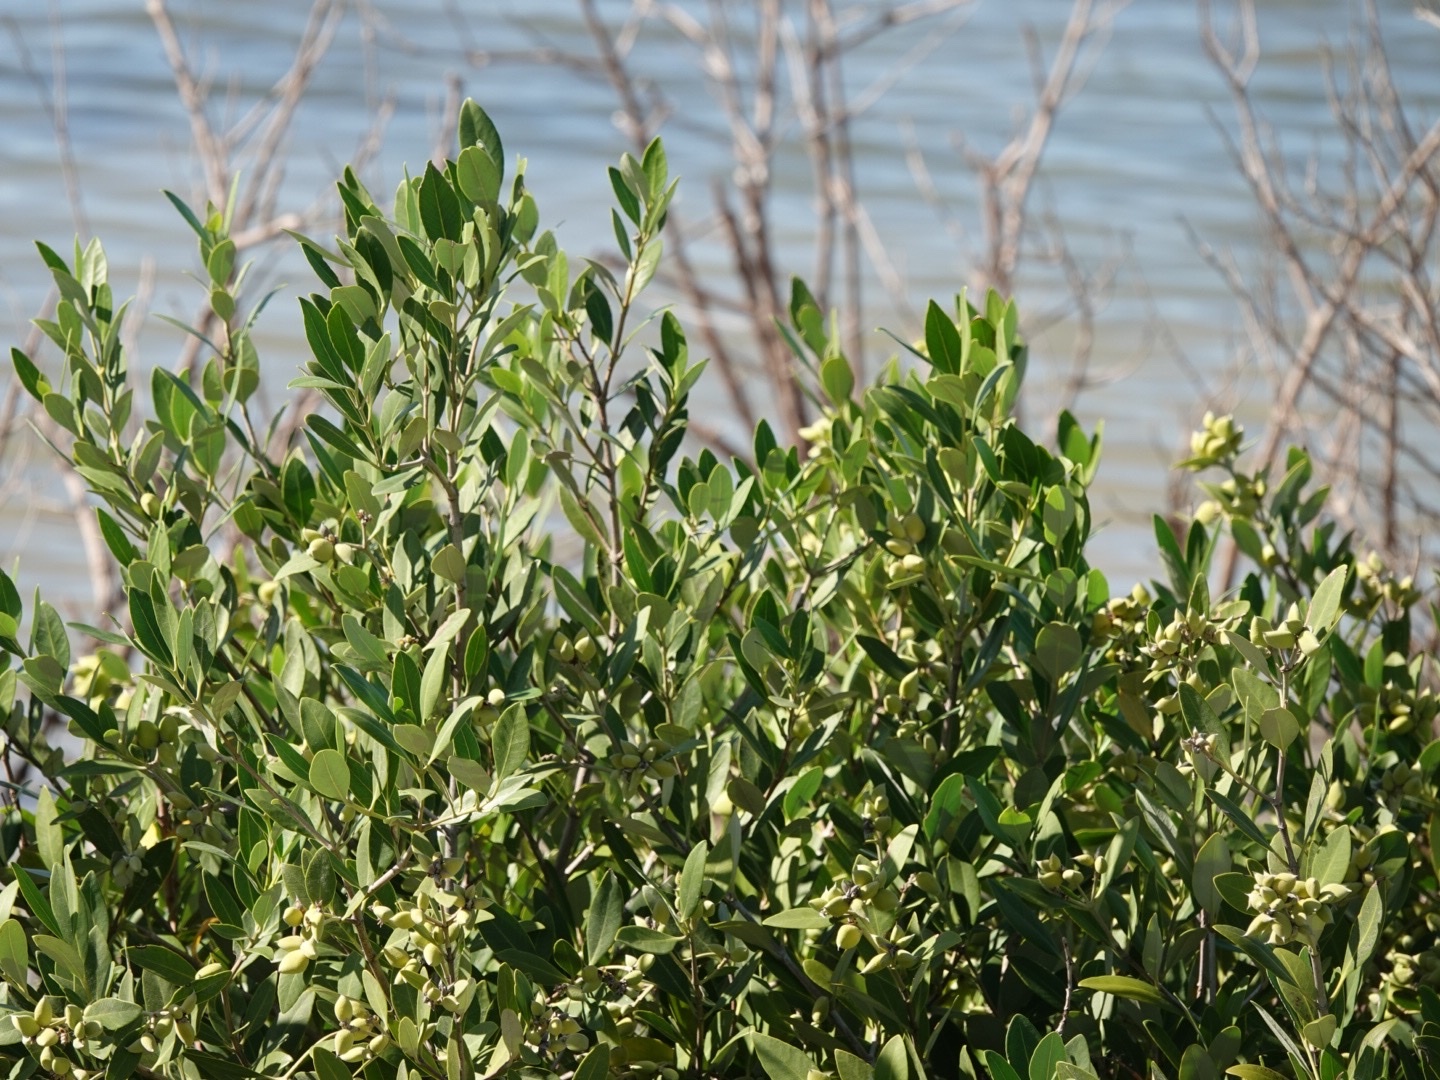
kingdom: Plantae
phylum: Tracheophyta
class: Magnoliopsida
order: Lamiales
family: Acanthaceae
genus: Avicennia
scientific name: Avicennia germinans
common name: Black mangrove
